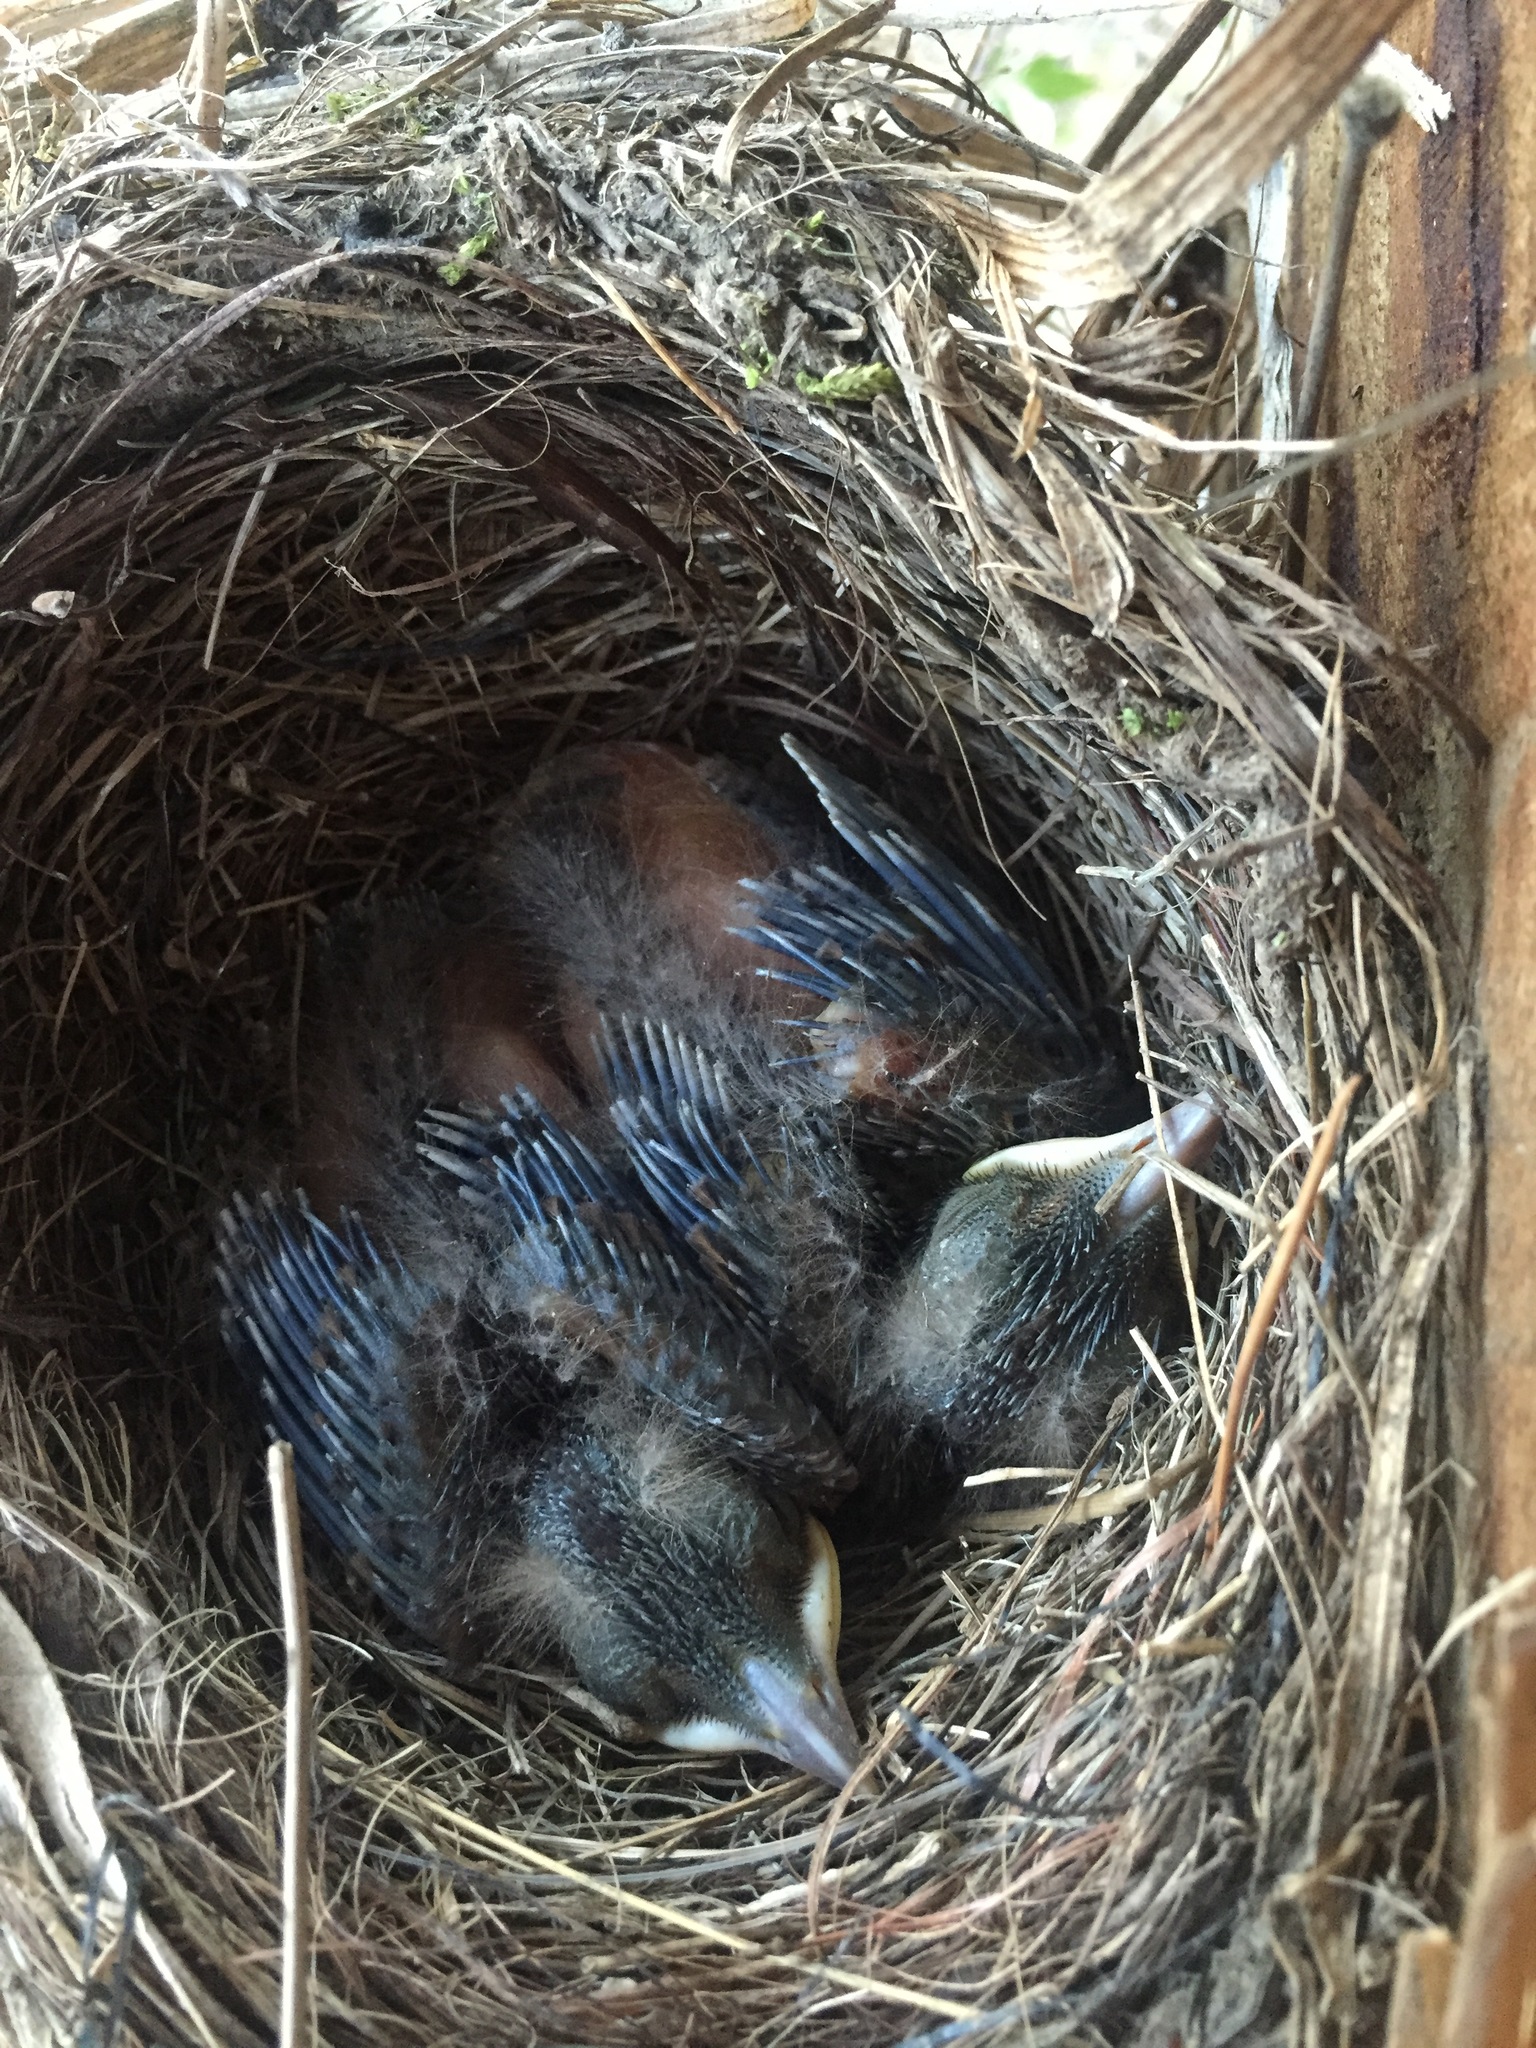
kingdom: Animalia
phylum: Chordata
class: Aves
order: Passeriformes
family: Turdidae
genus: Turdus
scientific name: Turdus merula
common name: Common blackbird
